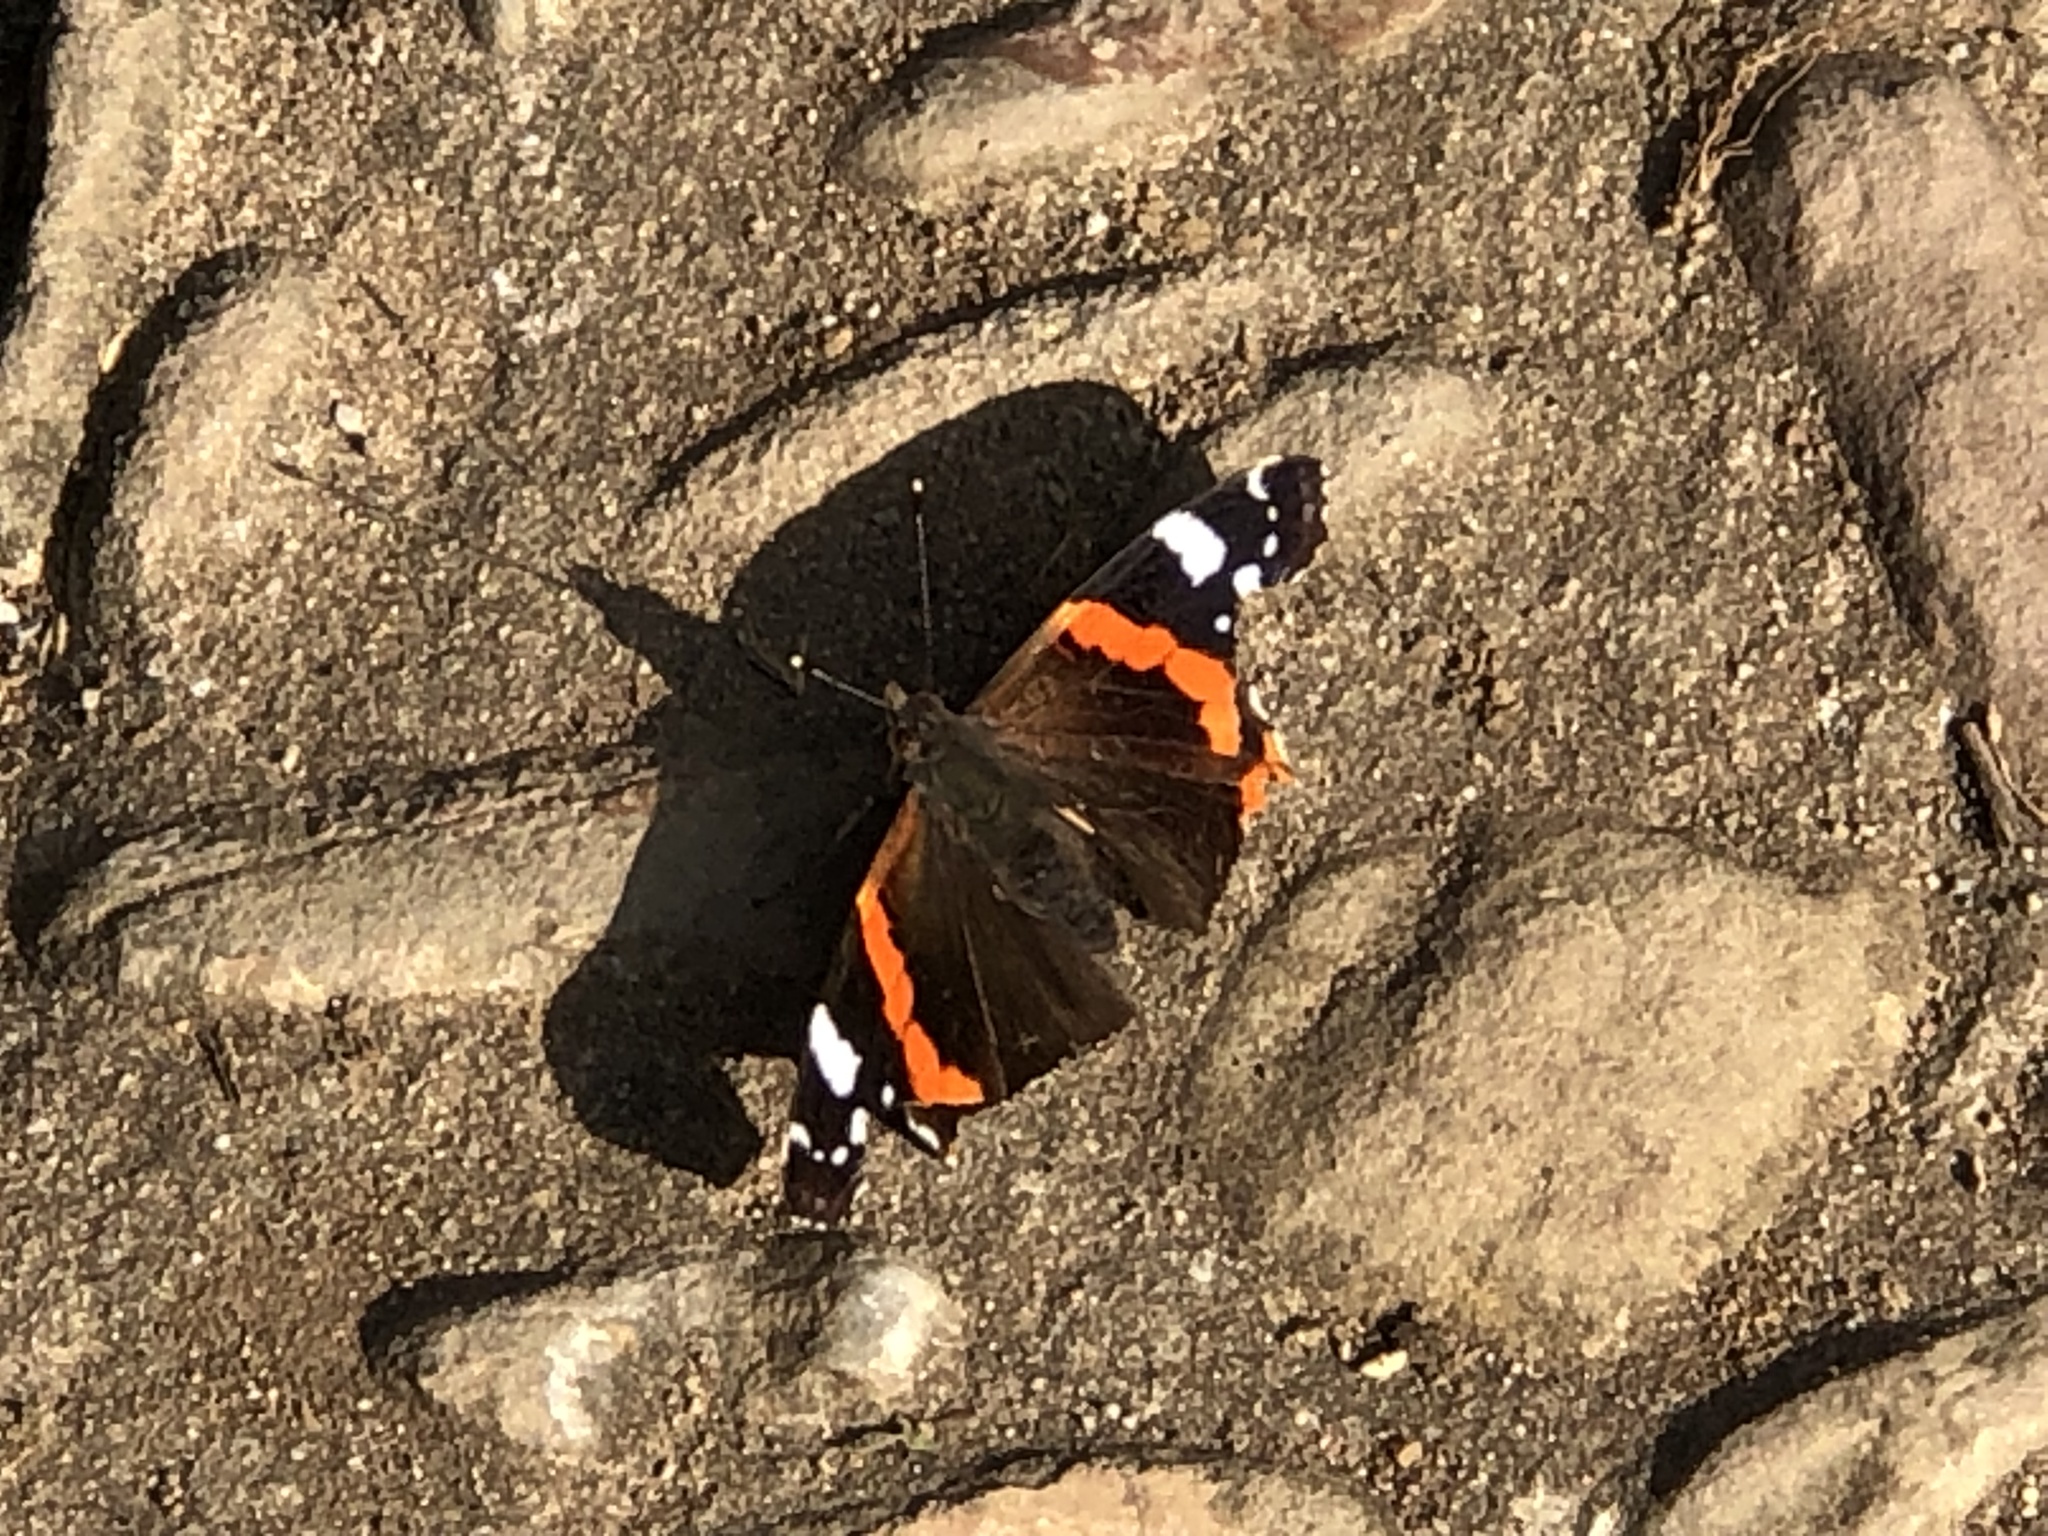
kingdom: Animalia
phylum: Arthropoda
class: Insecta
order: Lepidoptera
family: Nymphalidae
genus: Vanessa
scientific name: Vanessa atalanta
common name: Red admiral
